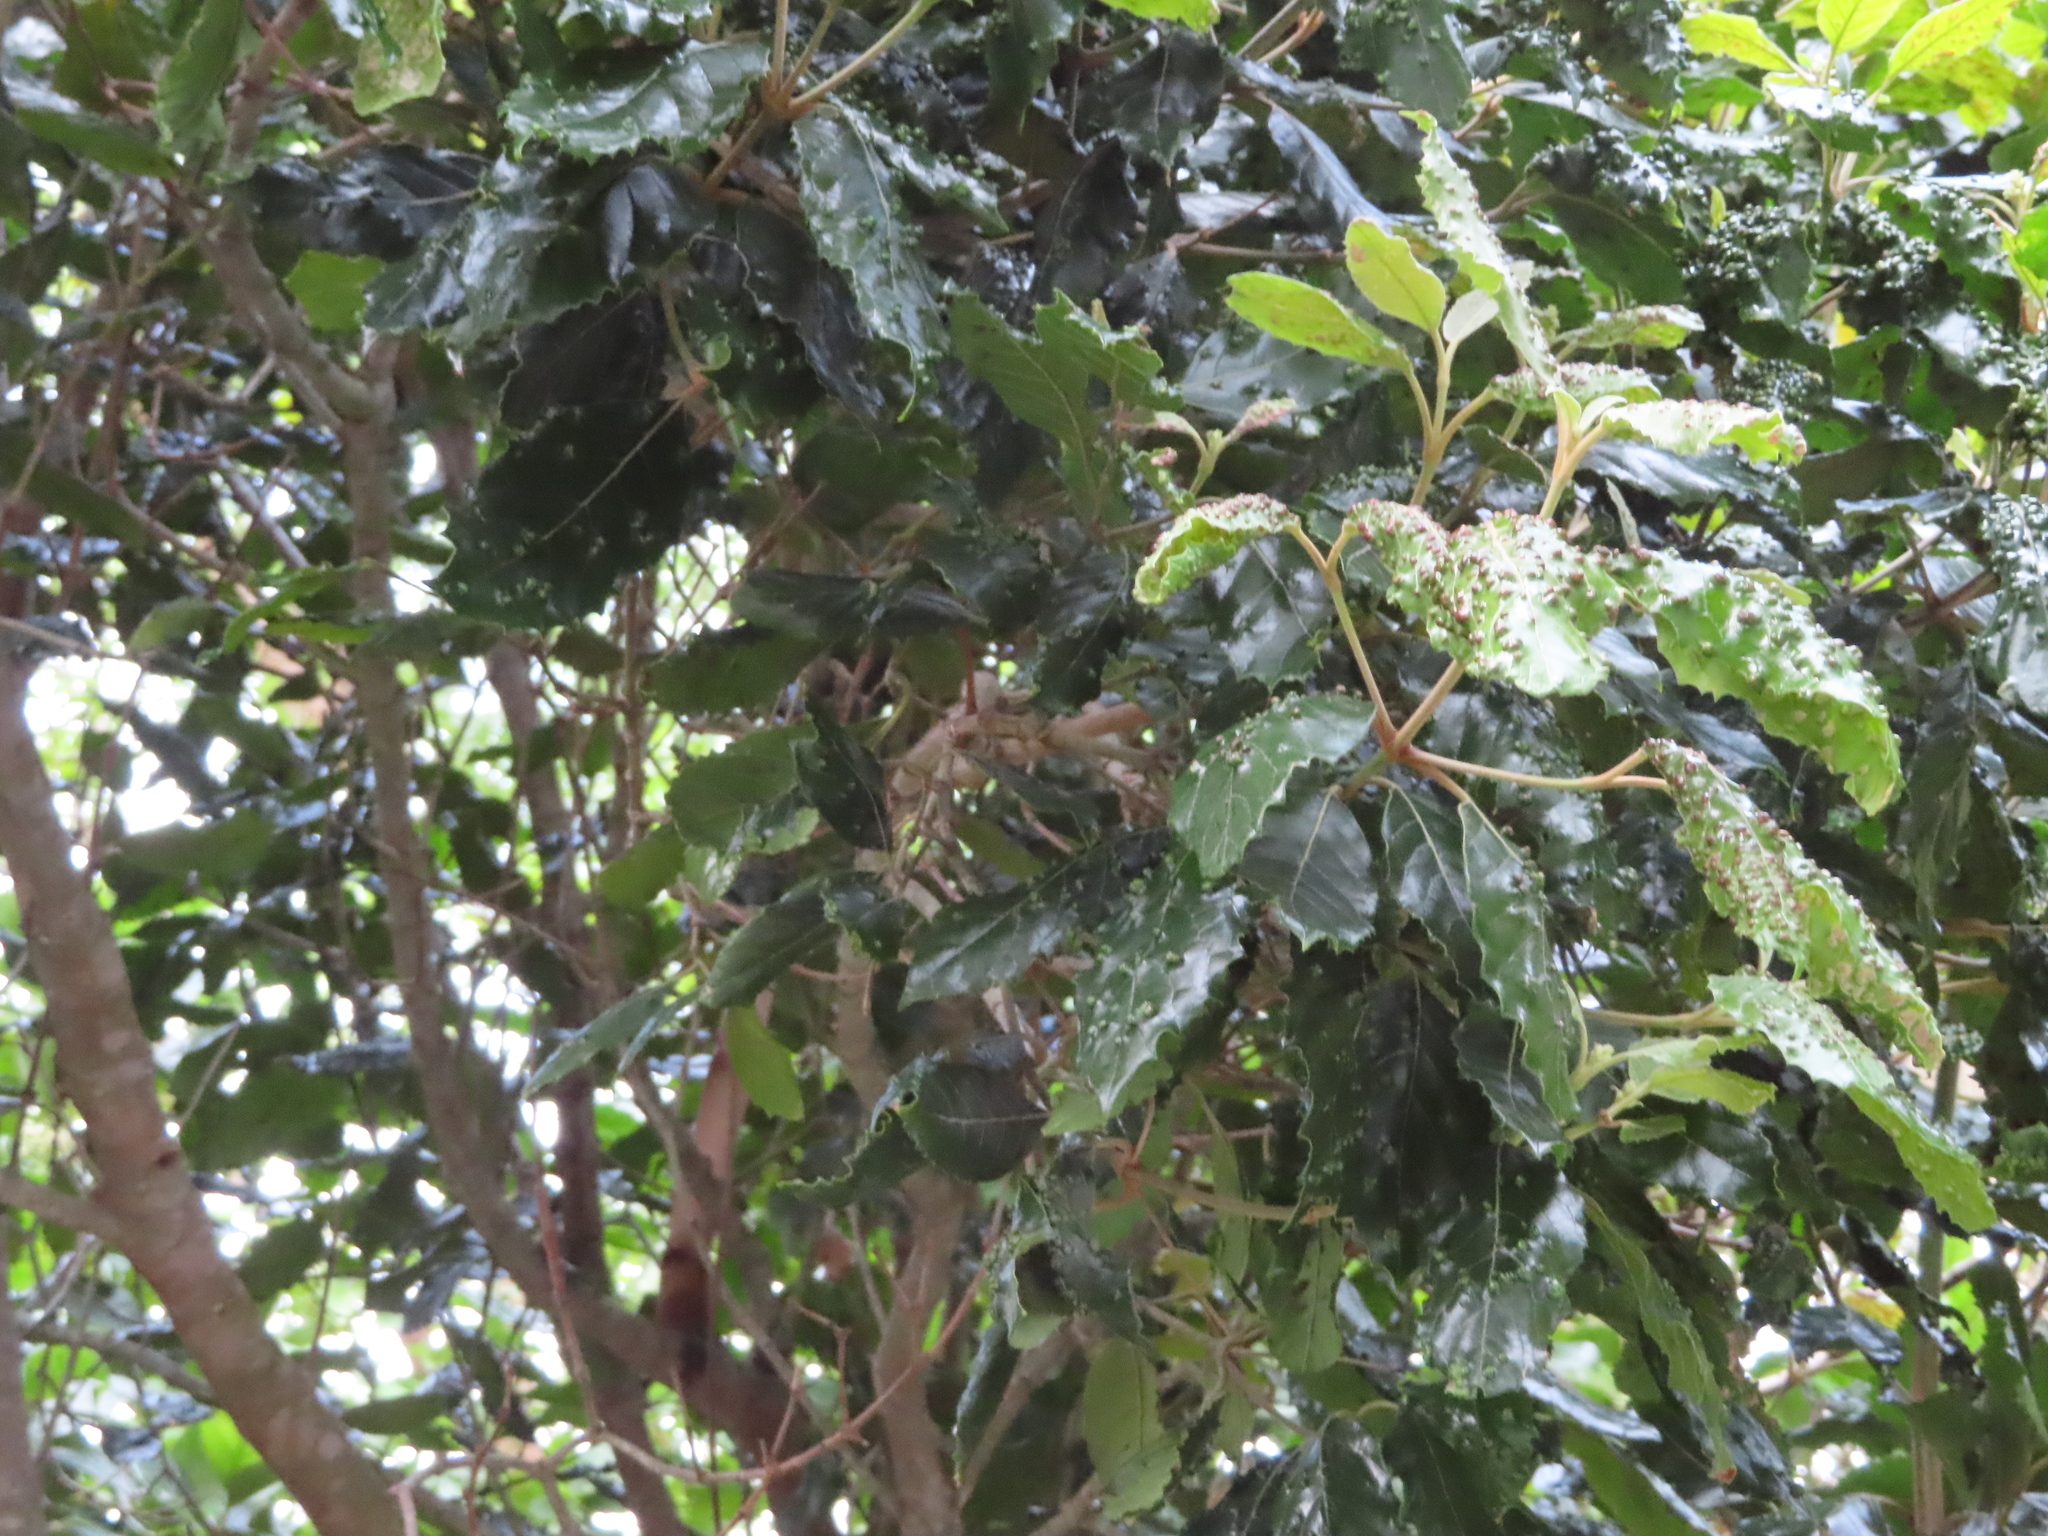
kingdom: Plantae
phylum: Tracheophyta
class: Magnoliopsida
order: Cornales
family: Curtisiaceae
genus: Curtisia
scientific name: Curtisia dentata
